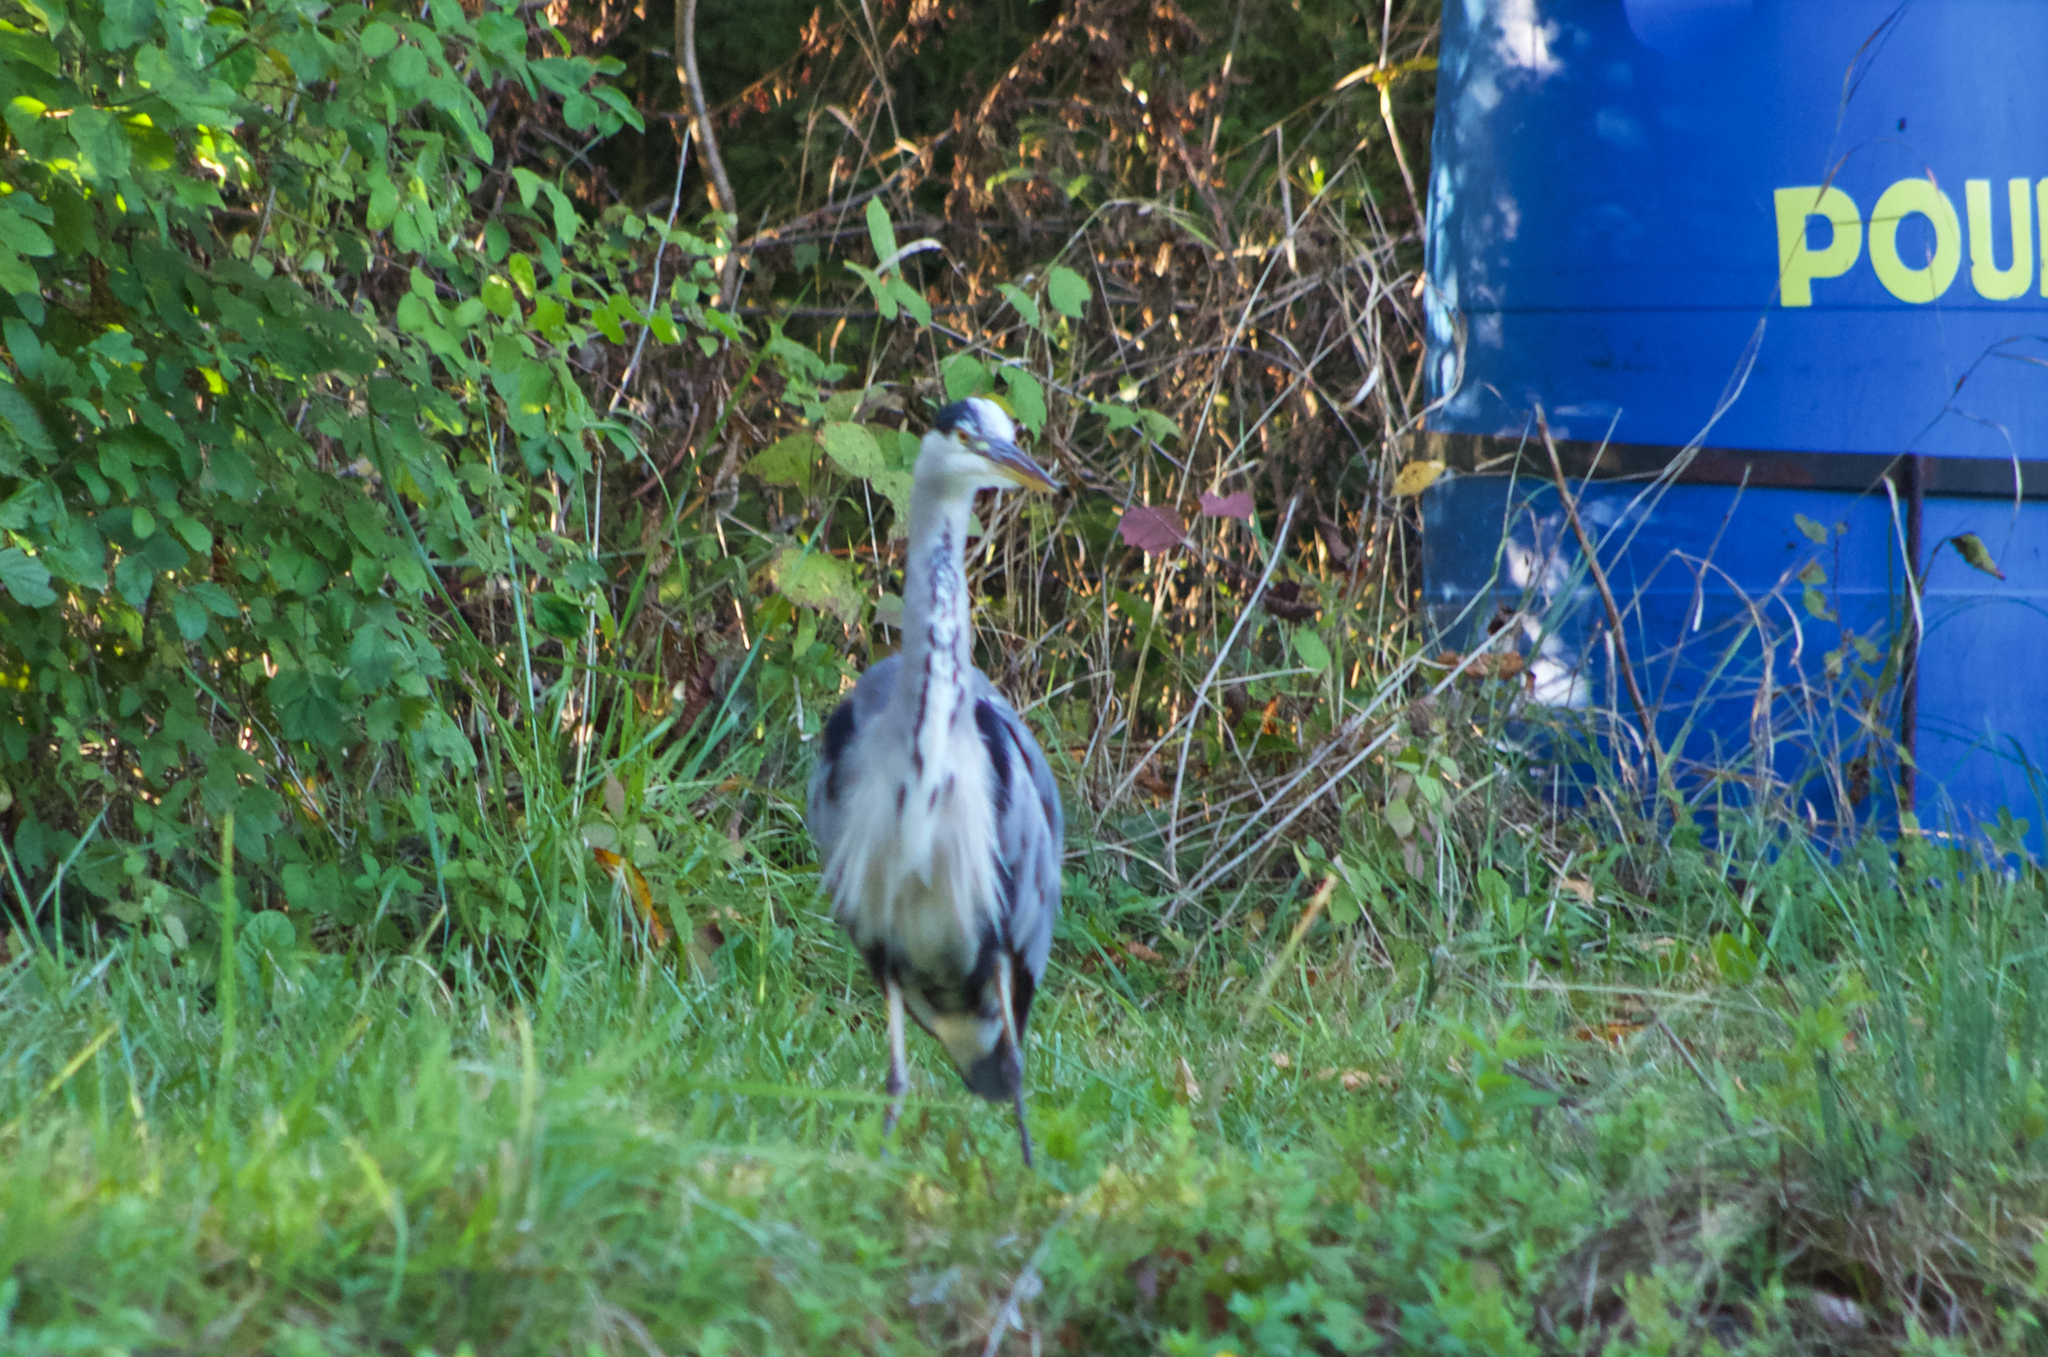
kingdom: Animalia
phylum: Chordata
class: Aves
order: Pelecaniformes
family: Ardeidae
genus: Ardea
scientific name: Ardea cinerea
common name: Grey heron
